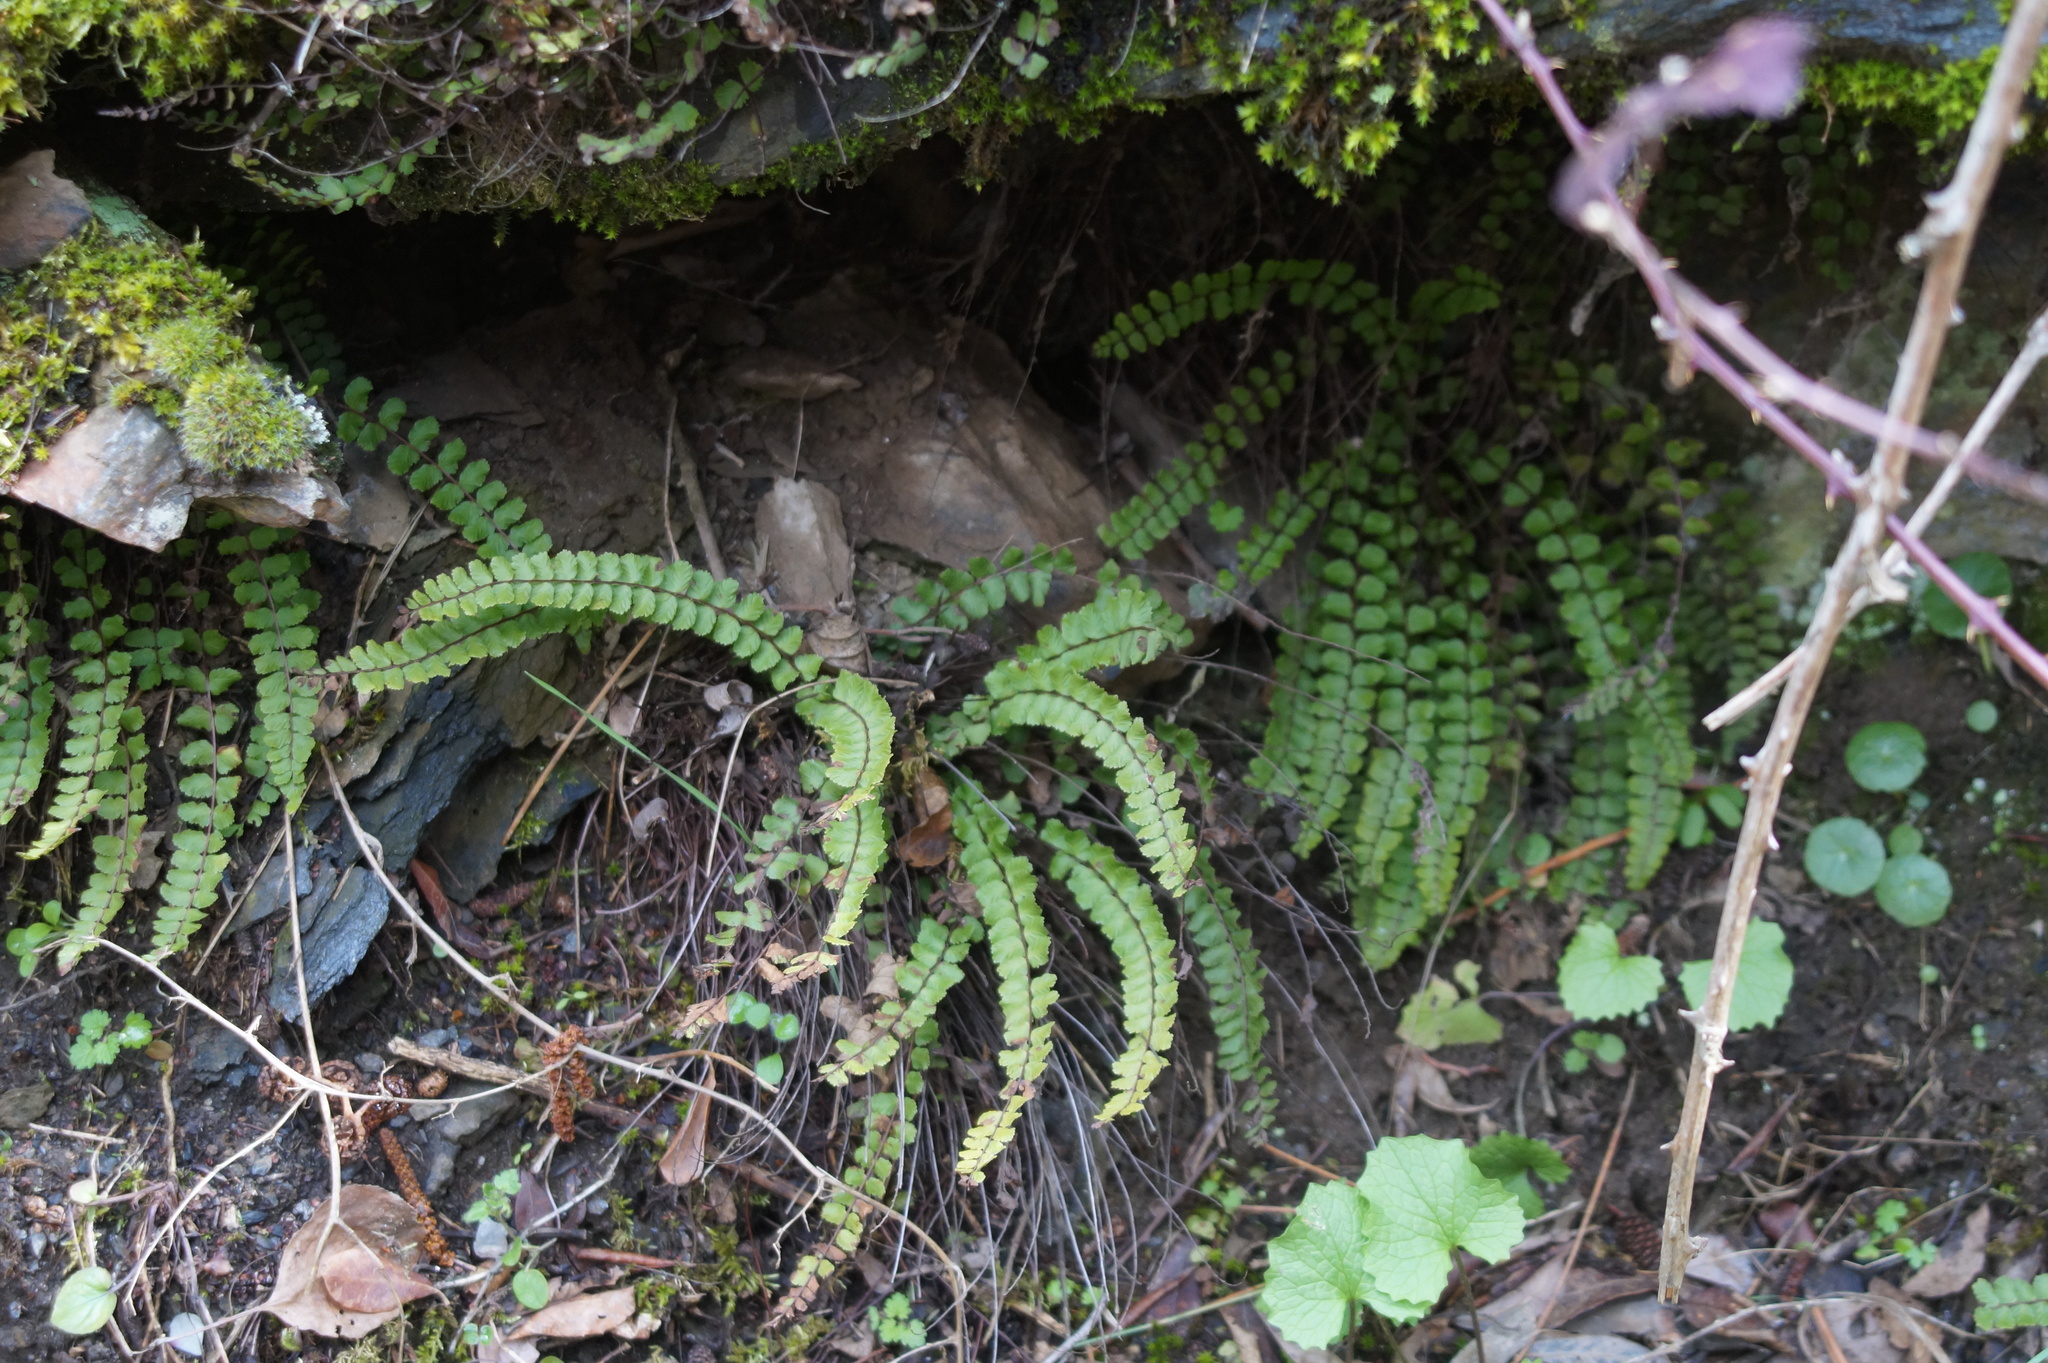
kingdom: Plantae
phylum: Tracheophyta
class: Polypodiopsida
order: Polypodiales
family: Aspleniaceae
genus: Asplenium
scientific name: Asplenium trichomanes
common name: Maidenhair spleenwort
